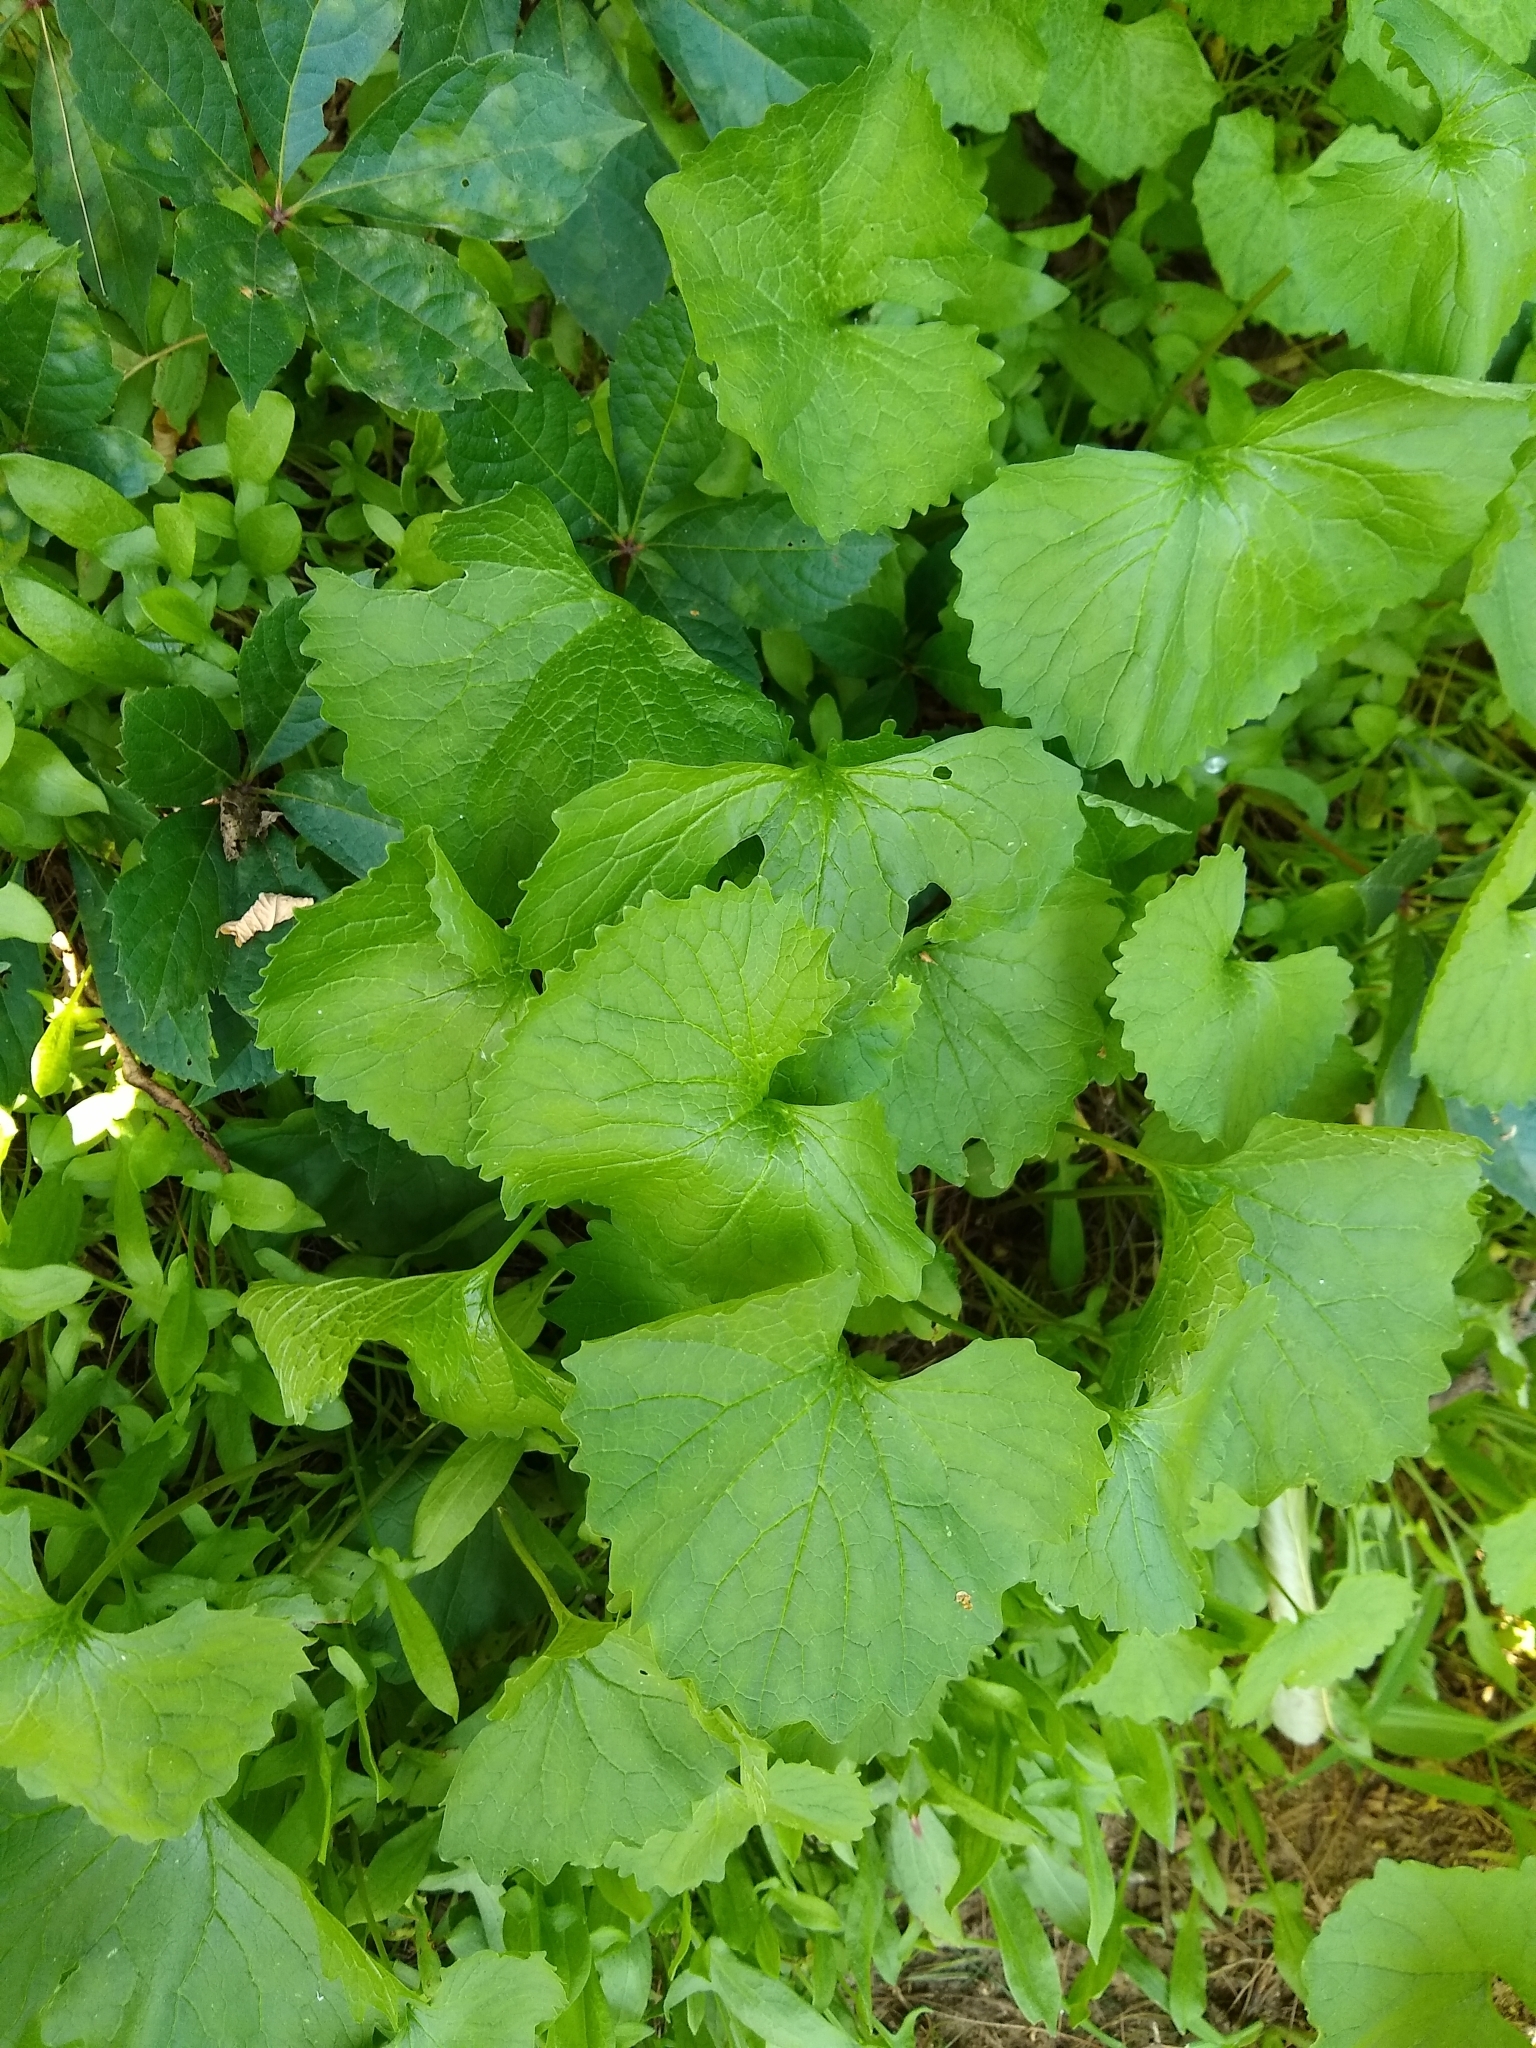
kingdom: Plantae
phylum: Tracheophyta
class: Magnoliopsida
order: Brassicales
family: Brassicaceae
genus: Alliaria
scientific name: Alliaria petiolata
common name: Garlic mustard
